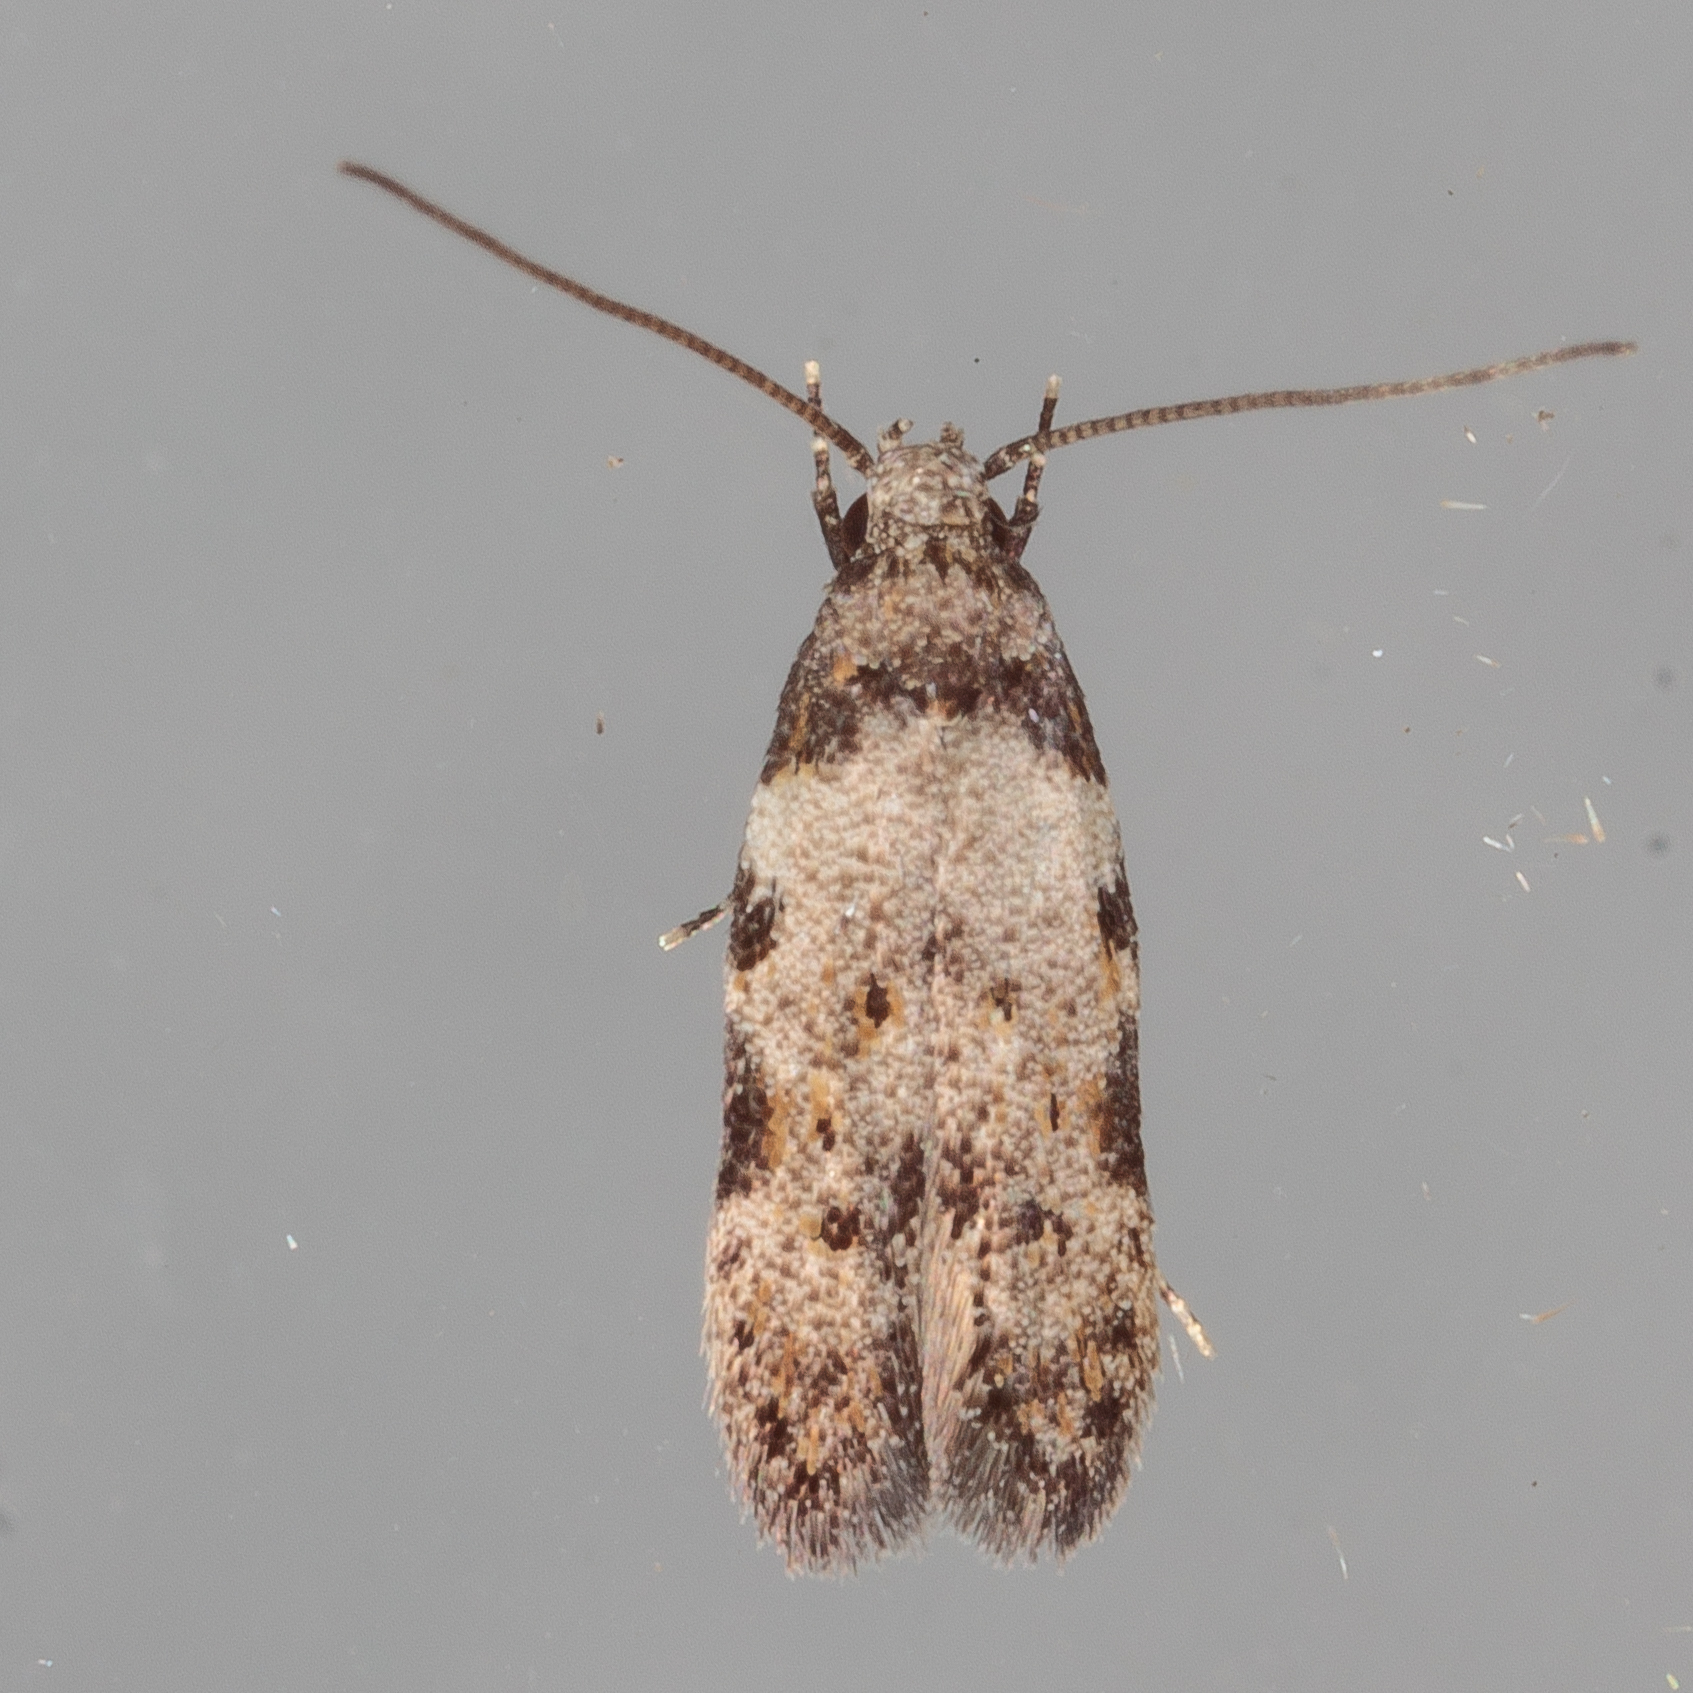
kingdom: Animalia
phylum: Arthropoda
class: Insecta
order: Lepidoptera
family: Autostichidae
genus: Taygete
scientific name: Taygete attributella
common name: Triangle-marked twirler moth
